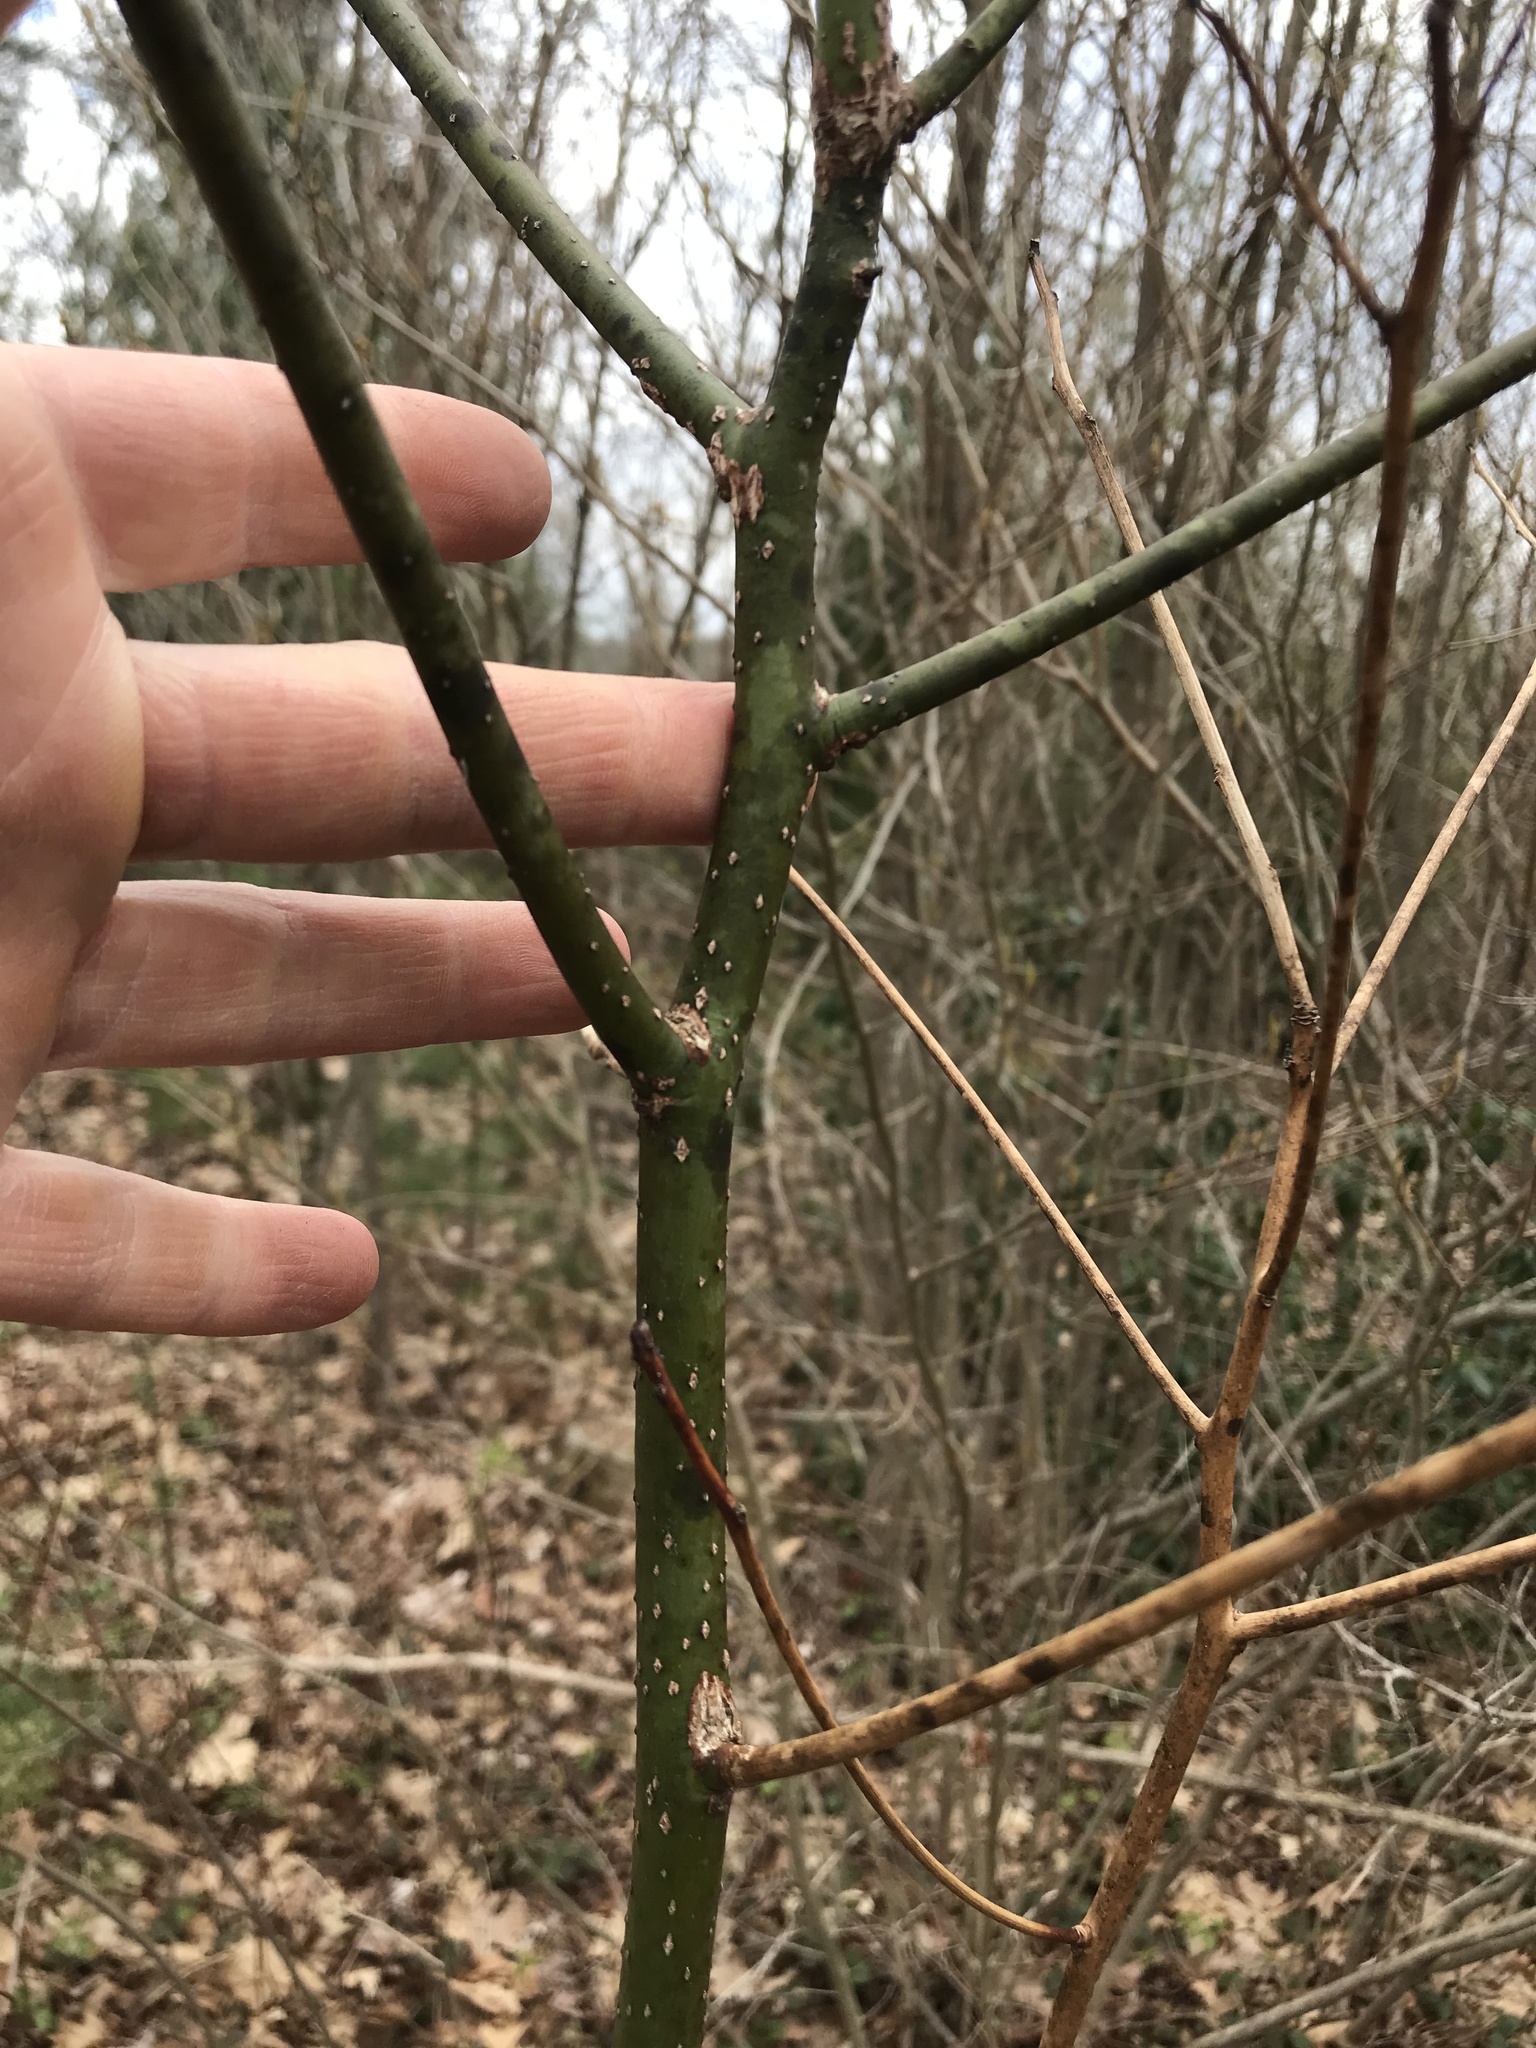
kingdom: Plantae
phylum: Tracheophyta
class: Magnoliopsida
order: Laurales
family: Lauraceae
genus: Sassafras
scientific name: Sassafras albidum
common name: Sassafras
